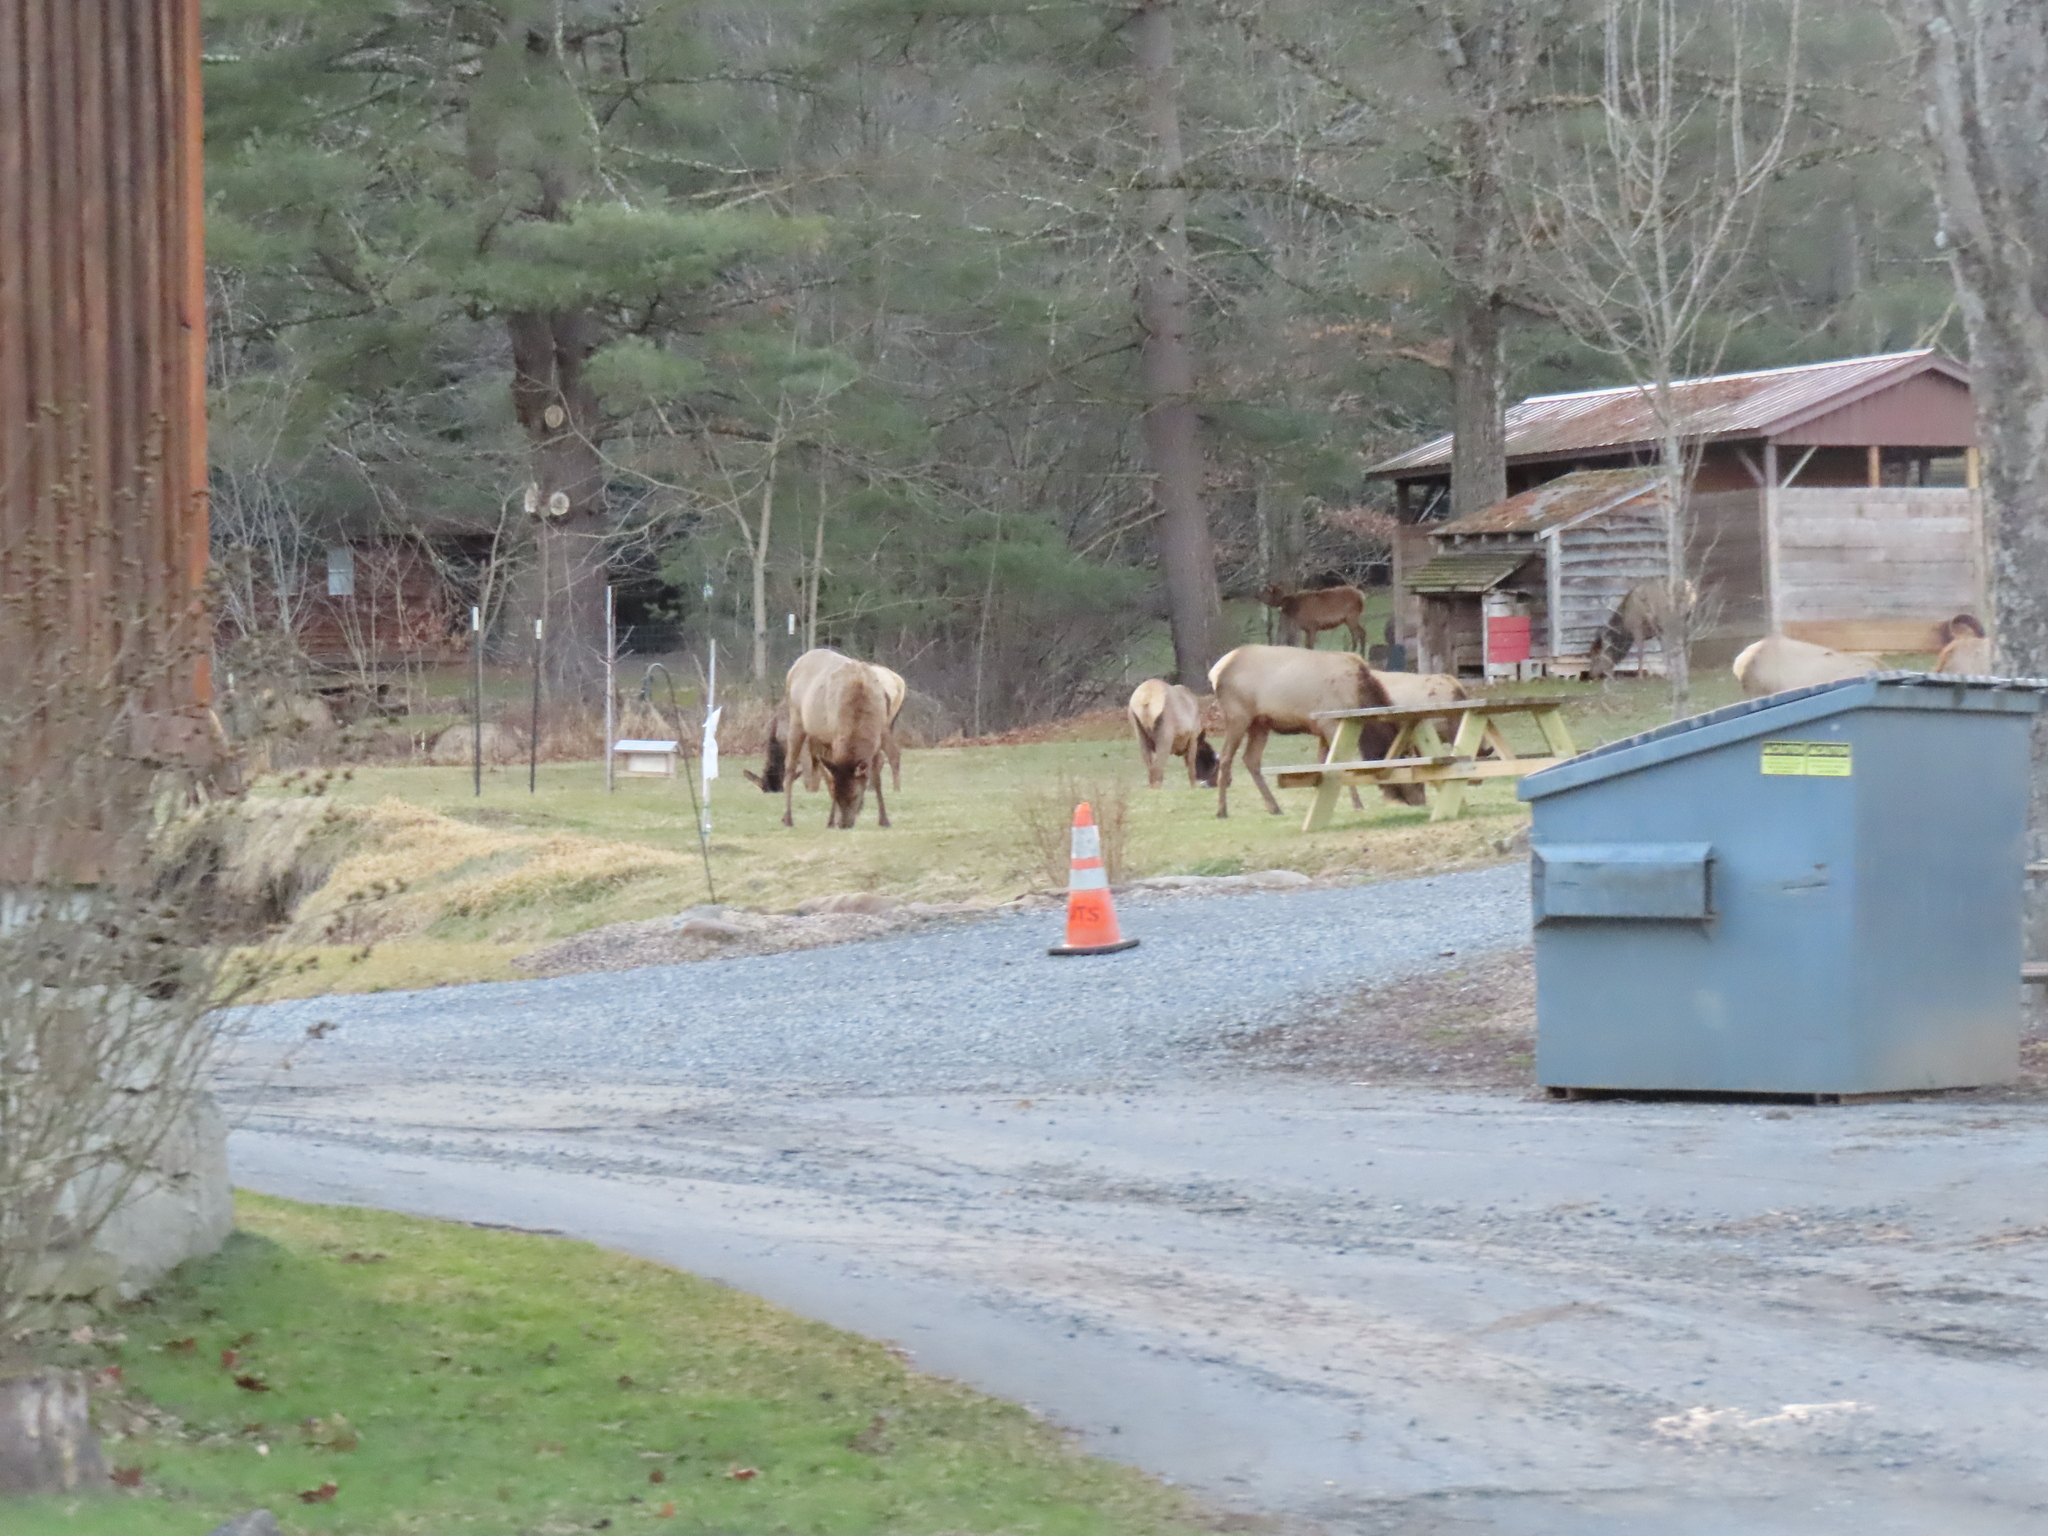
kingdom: Animalia
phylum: Chordata
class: Mammalia
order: Artiodactyla
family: Cervidae
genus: Cervus
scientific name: Cervus elaphus
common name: Red deer
